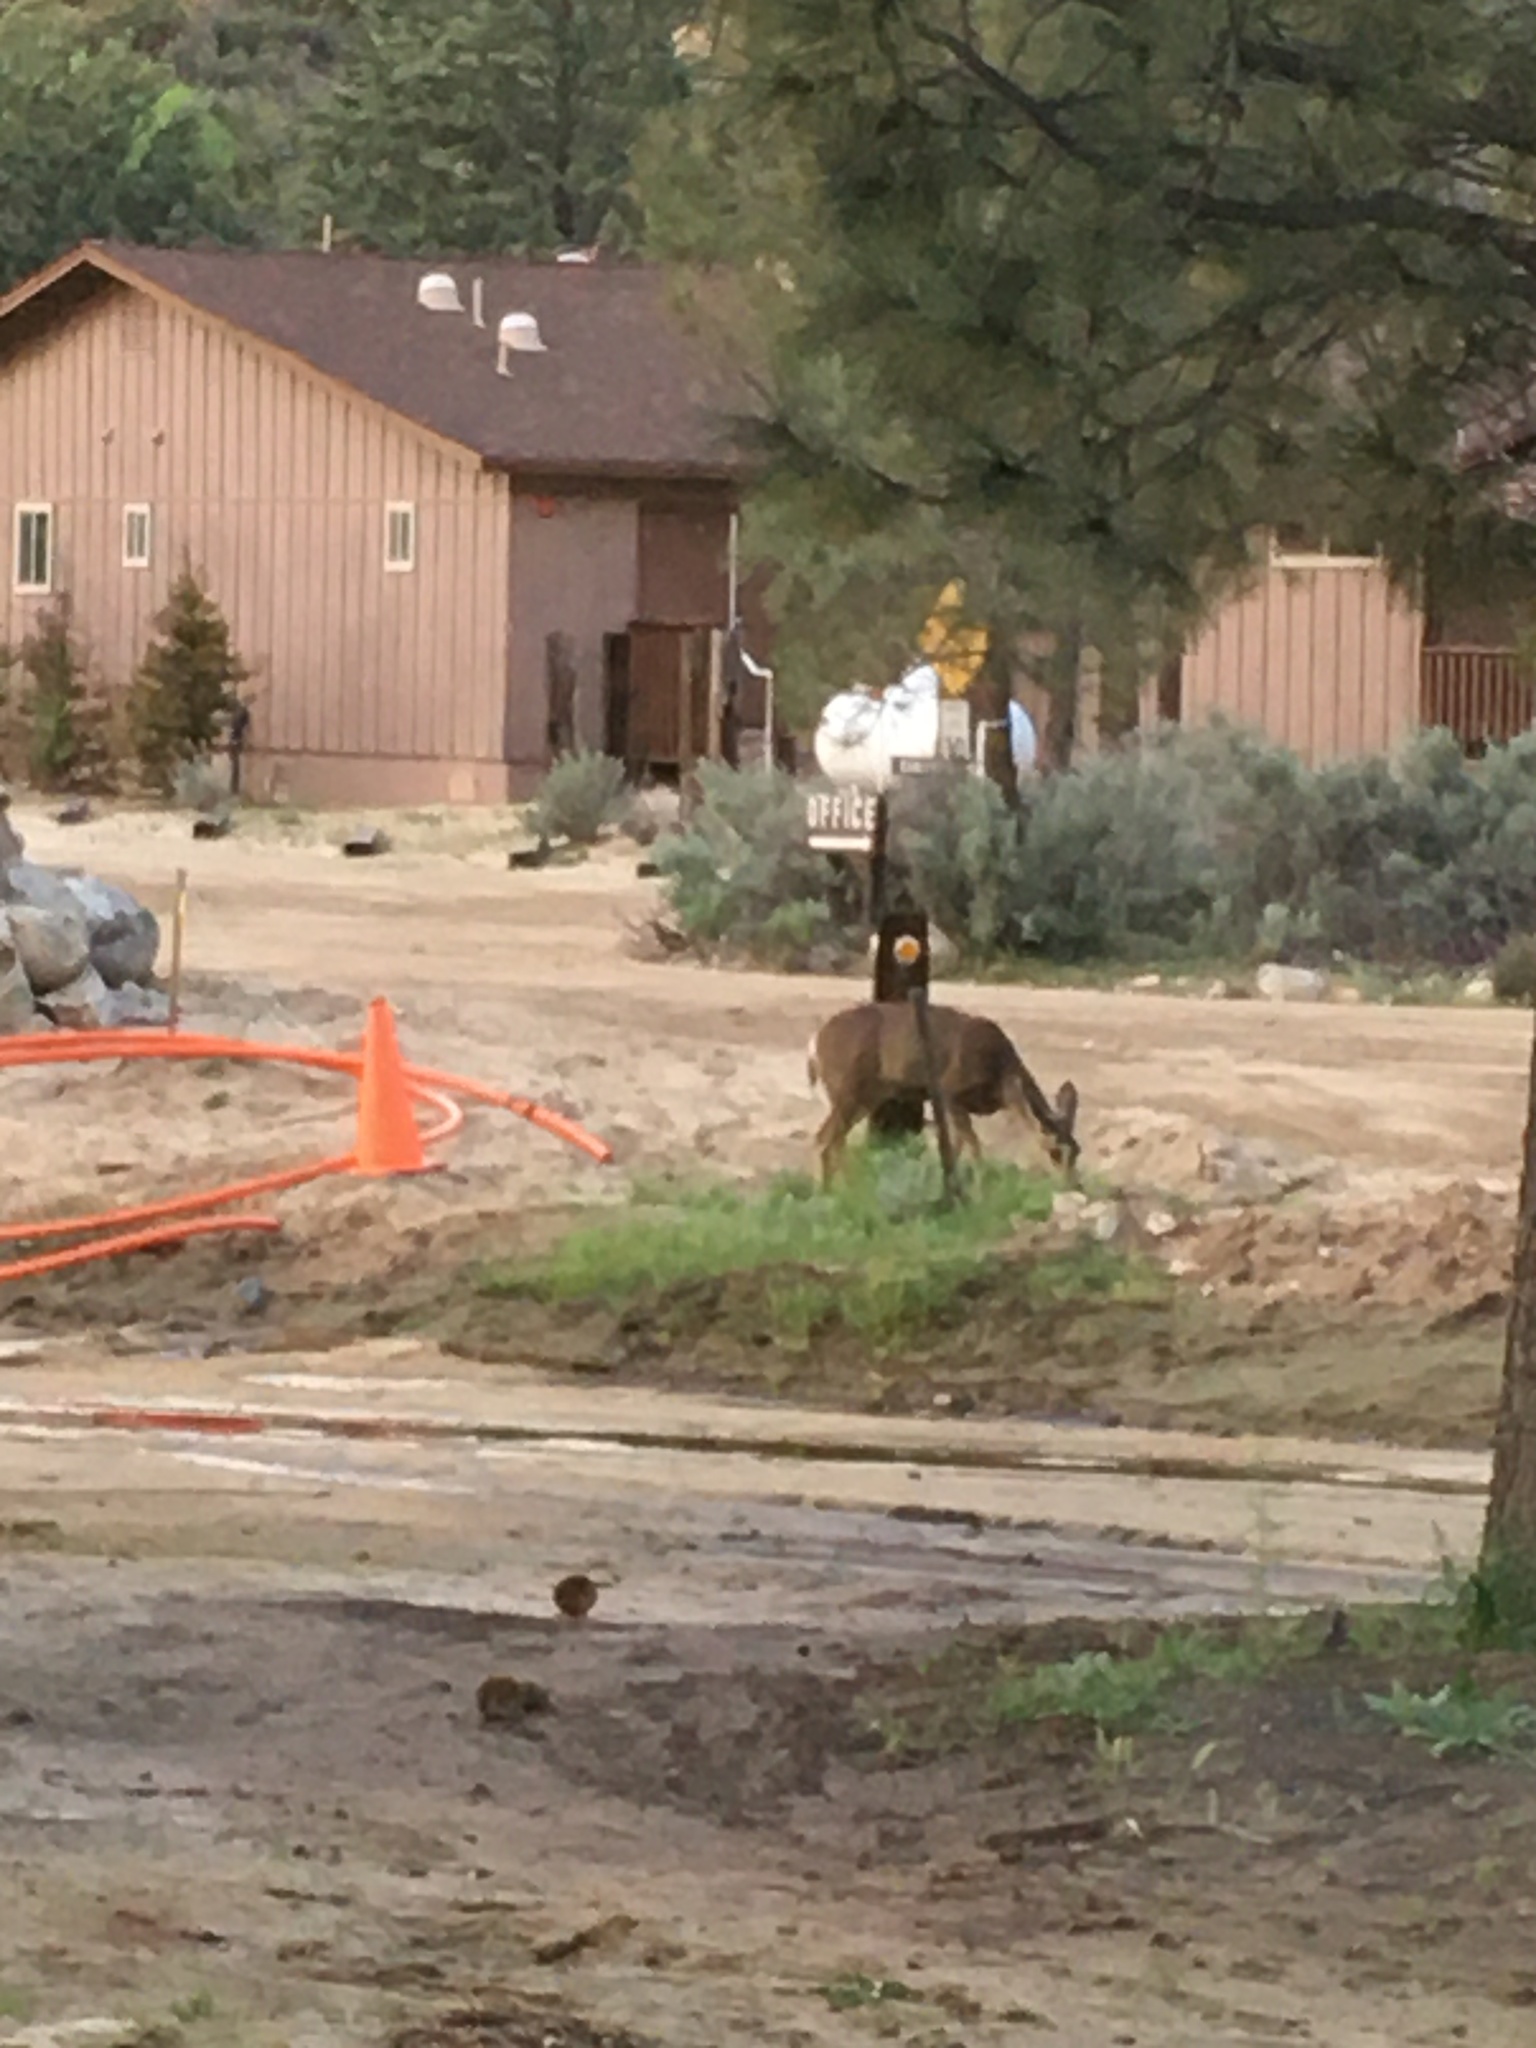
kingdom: Animalia
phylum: Chordata
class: Mammalia
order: Artiodactyla
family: Cervidae
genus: Odocoileus
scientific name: Odocoileus hemionus
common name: Mule deer
